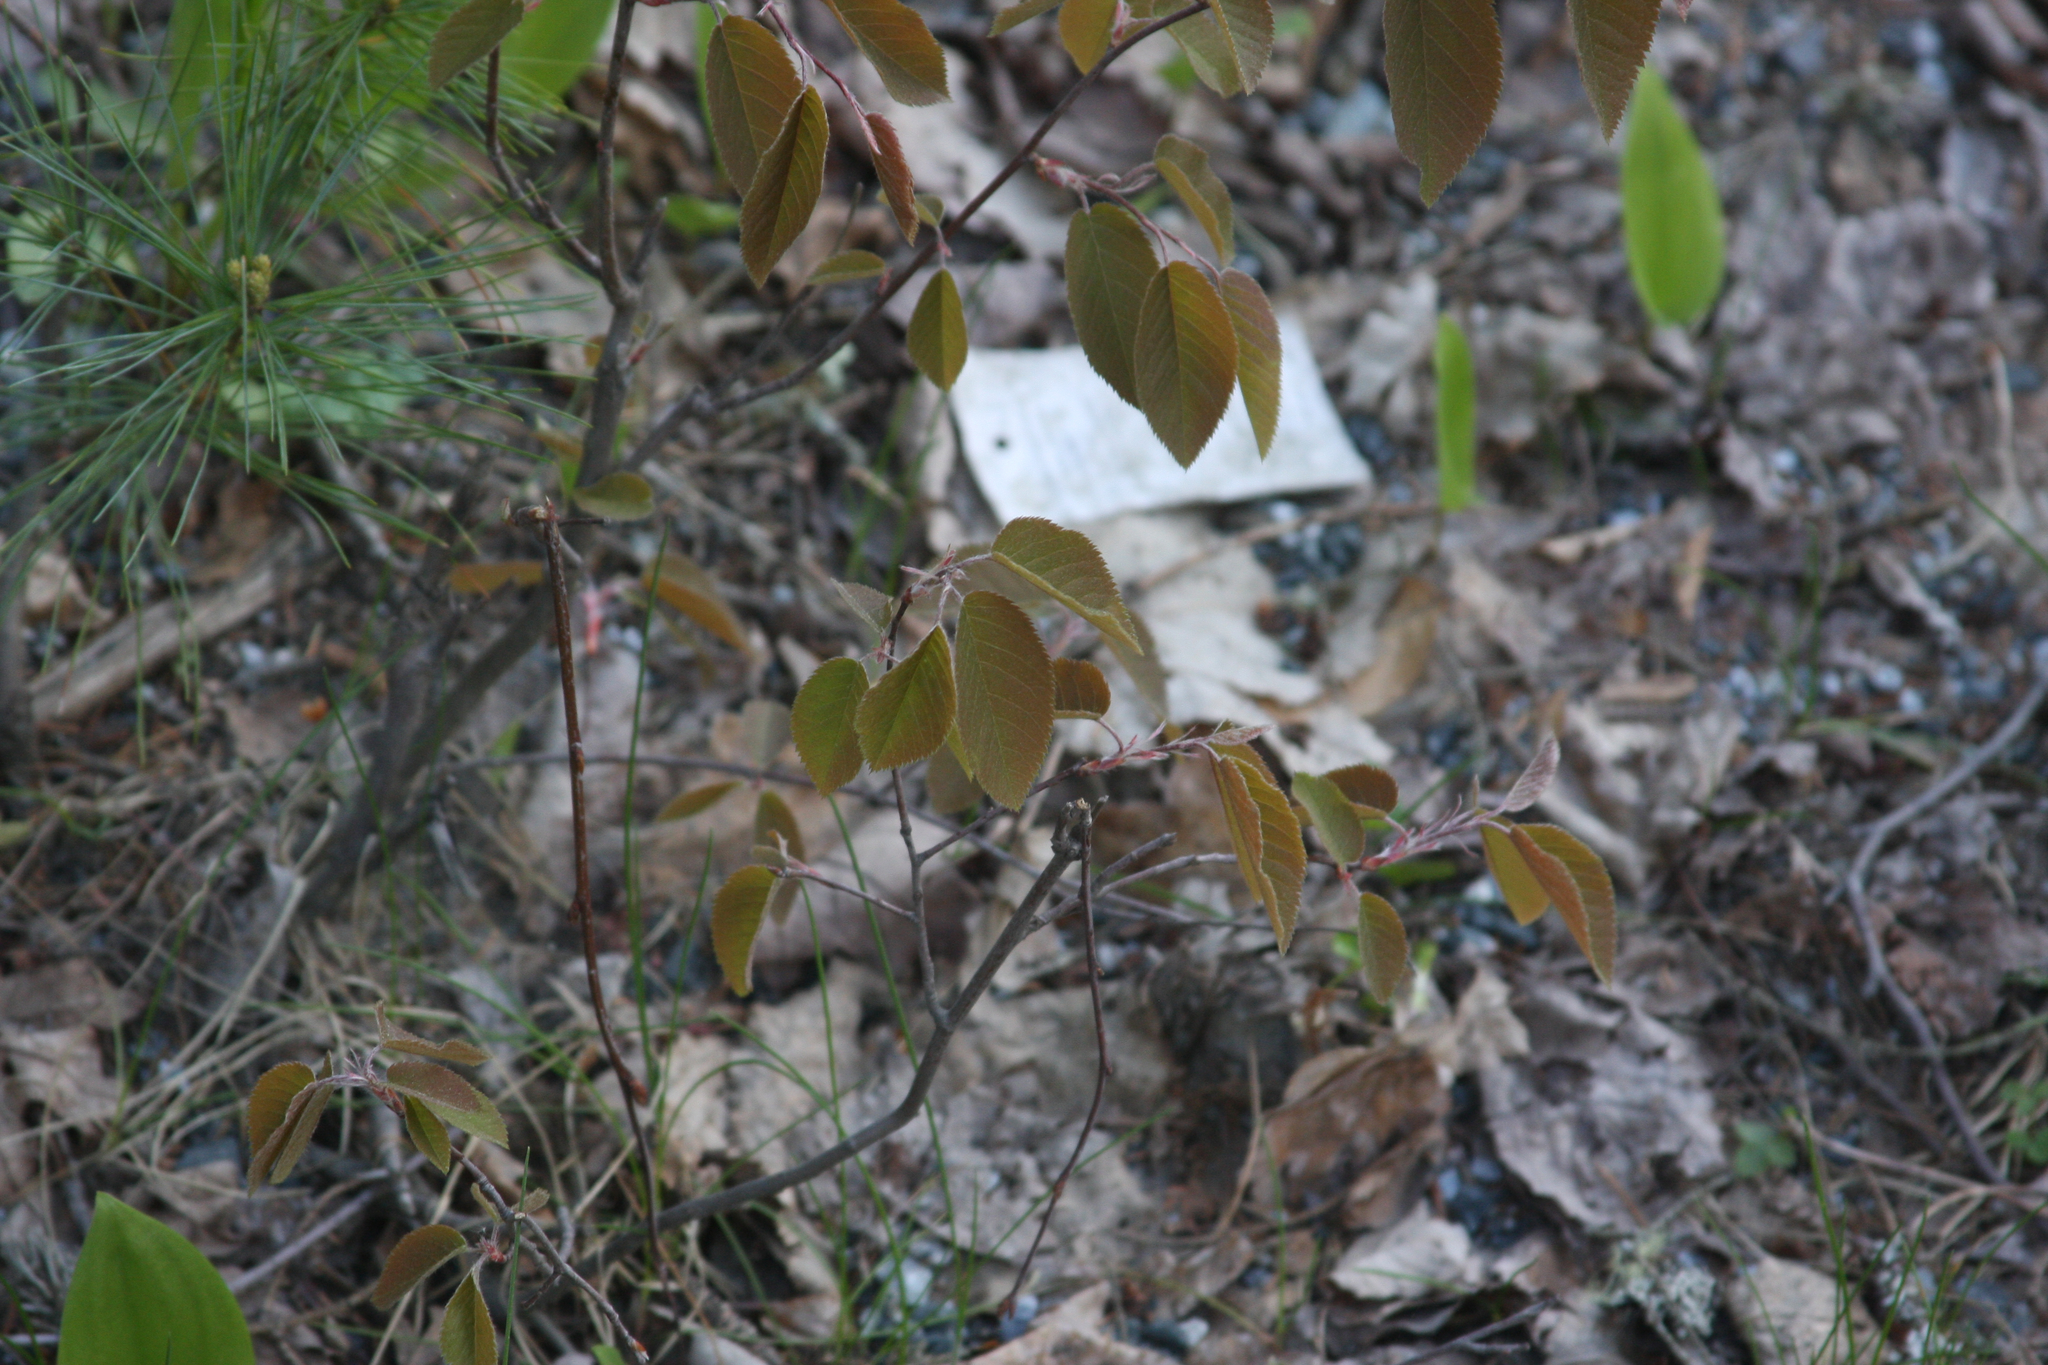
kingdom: Plantae
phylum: Tracheophyta
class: Pinopsida
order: Pinales
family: Pinaceae
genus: Pinus
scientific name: Pinus strobus
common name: Weymouth pine
